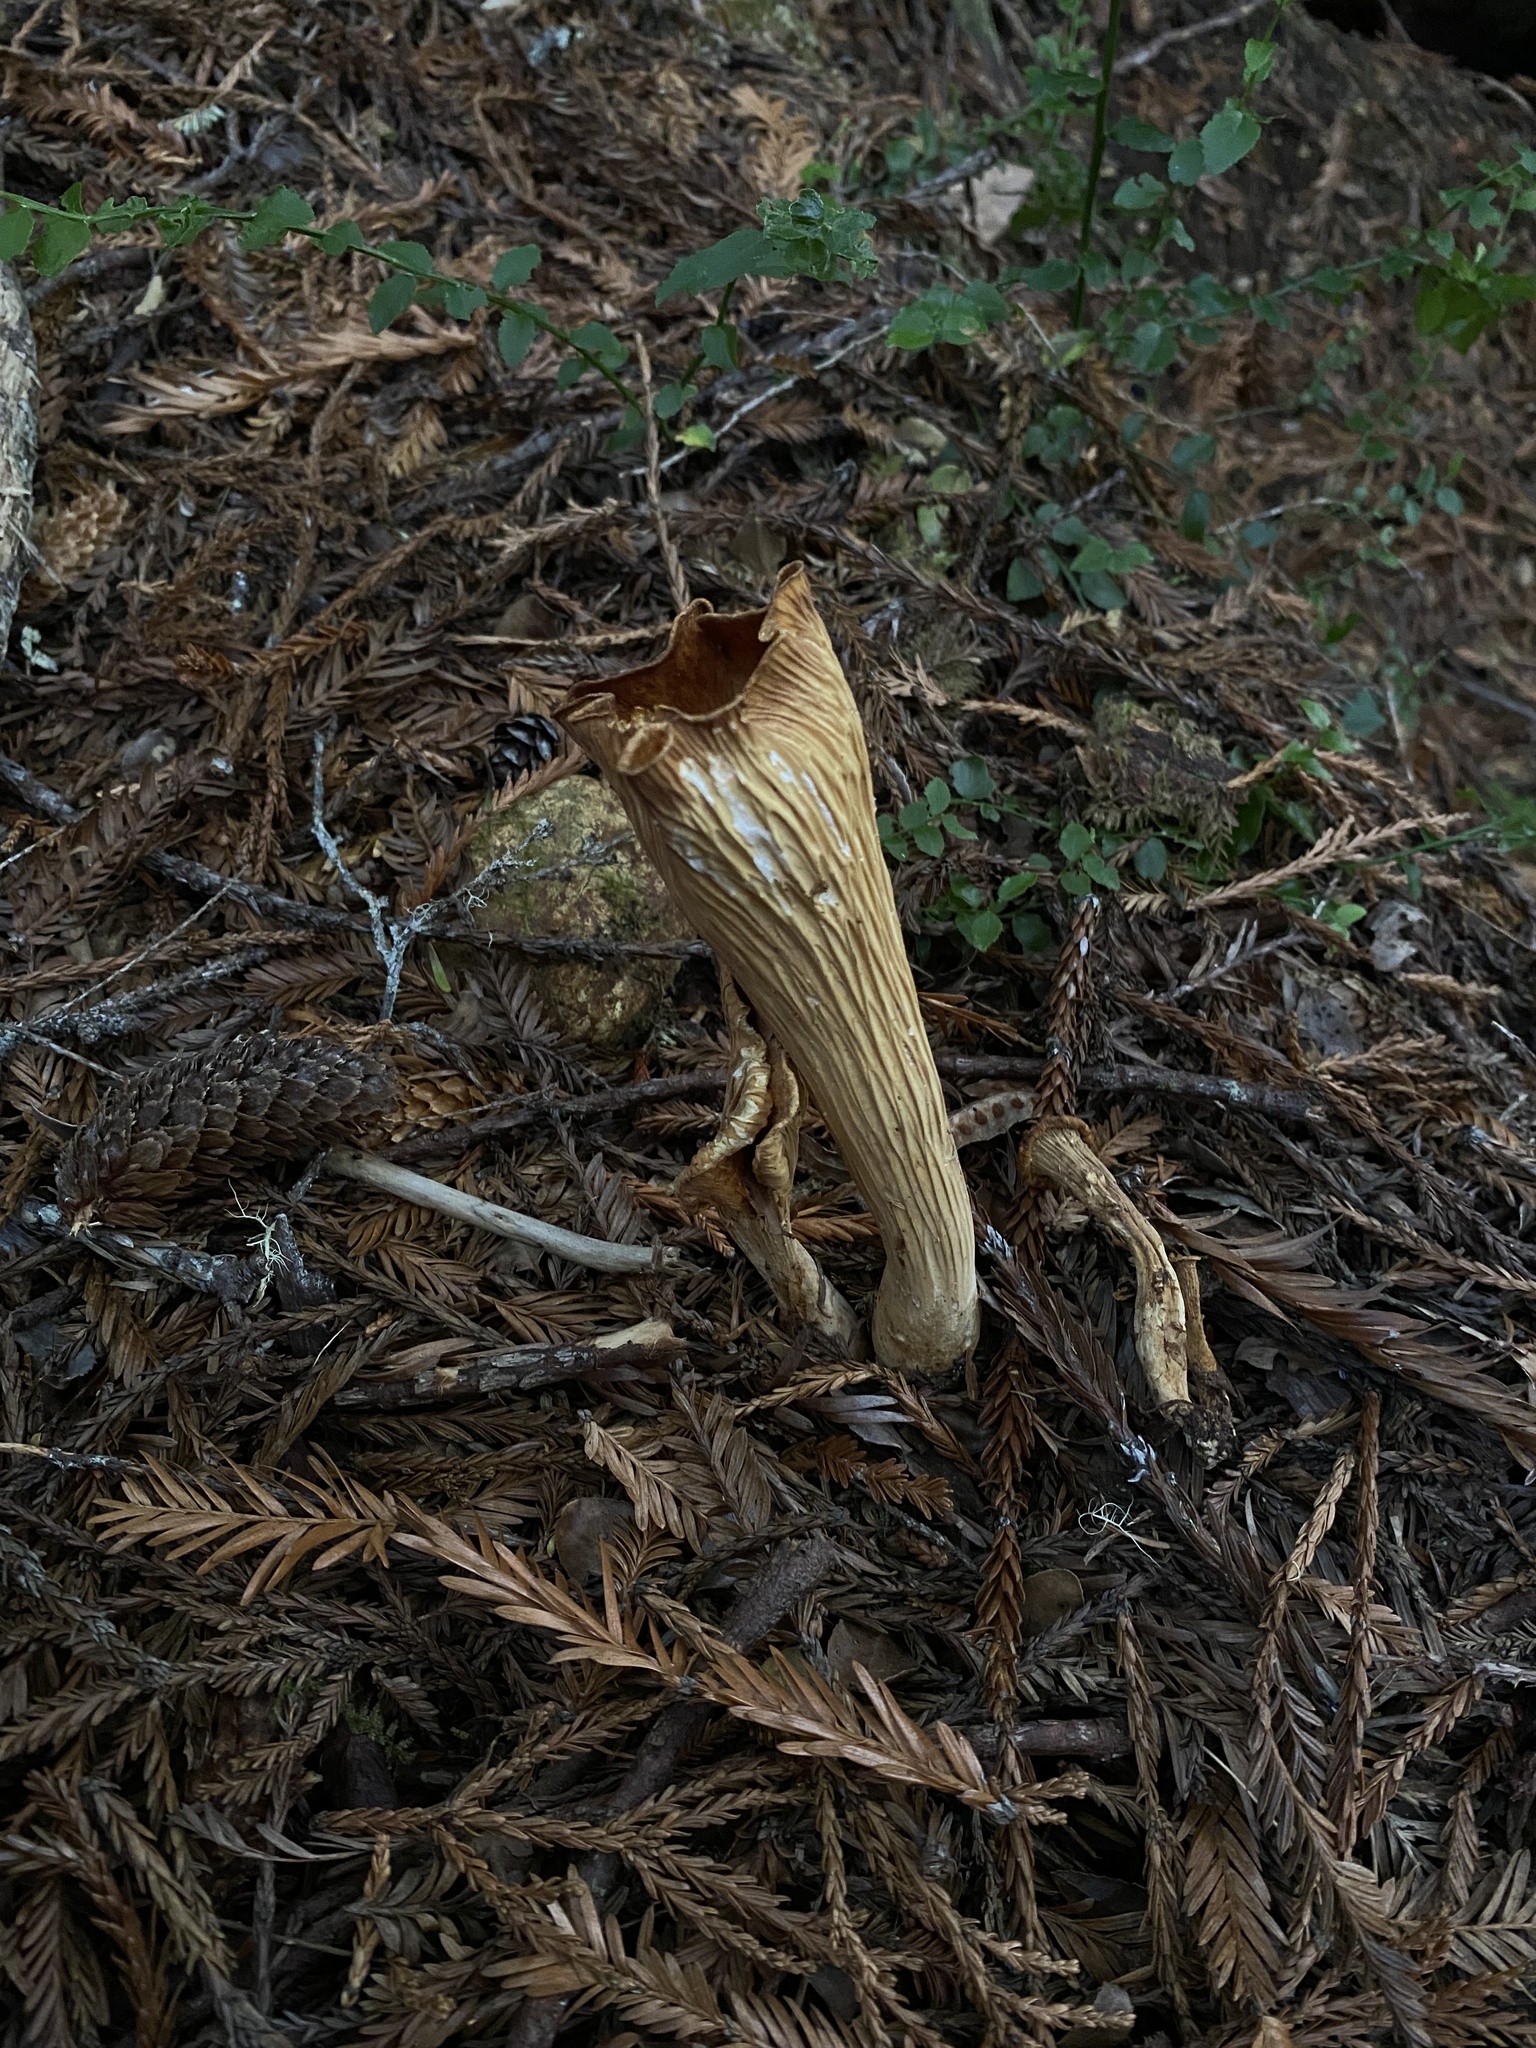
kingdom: Fungi
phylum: Basidiomycota
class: Agaricomycetes
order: Gomphales
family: Gomphaceae
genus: Turbinellus
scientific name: Turbinellus floccosus
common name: Scaly chanterelle
